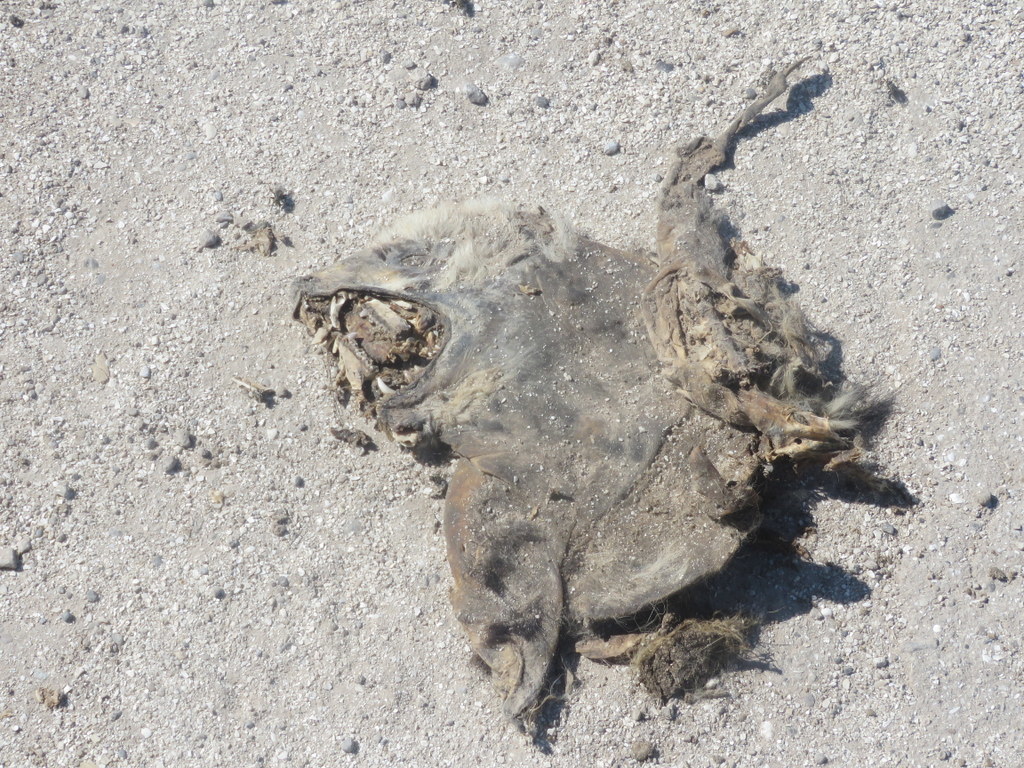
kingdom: Animalia
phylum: Chordata
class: Mammalia
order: Didelphimorphia
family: Didelphidae
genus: Didelphis
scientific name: Didelphis albiventris
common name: White-eared opossum
